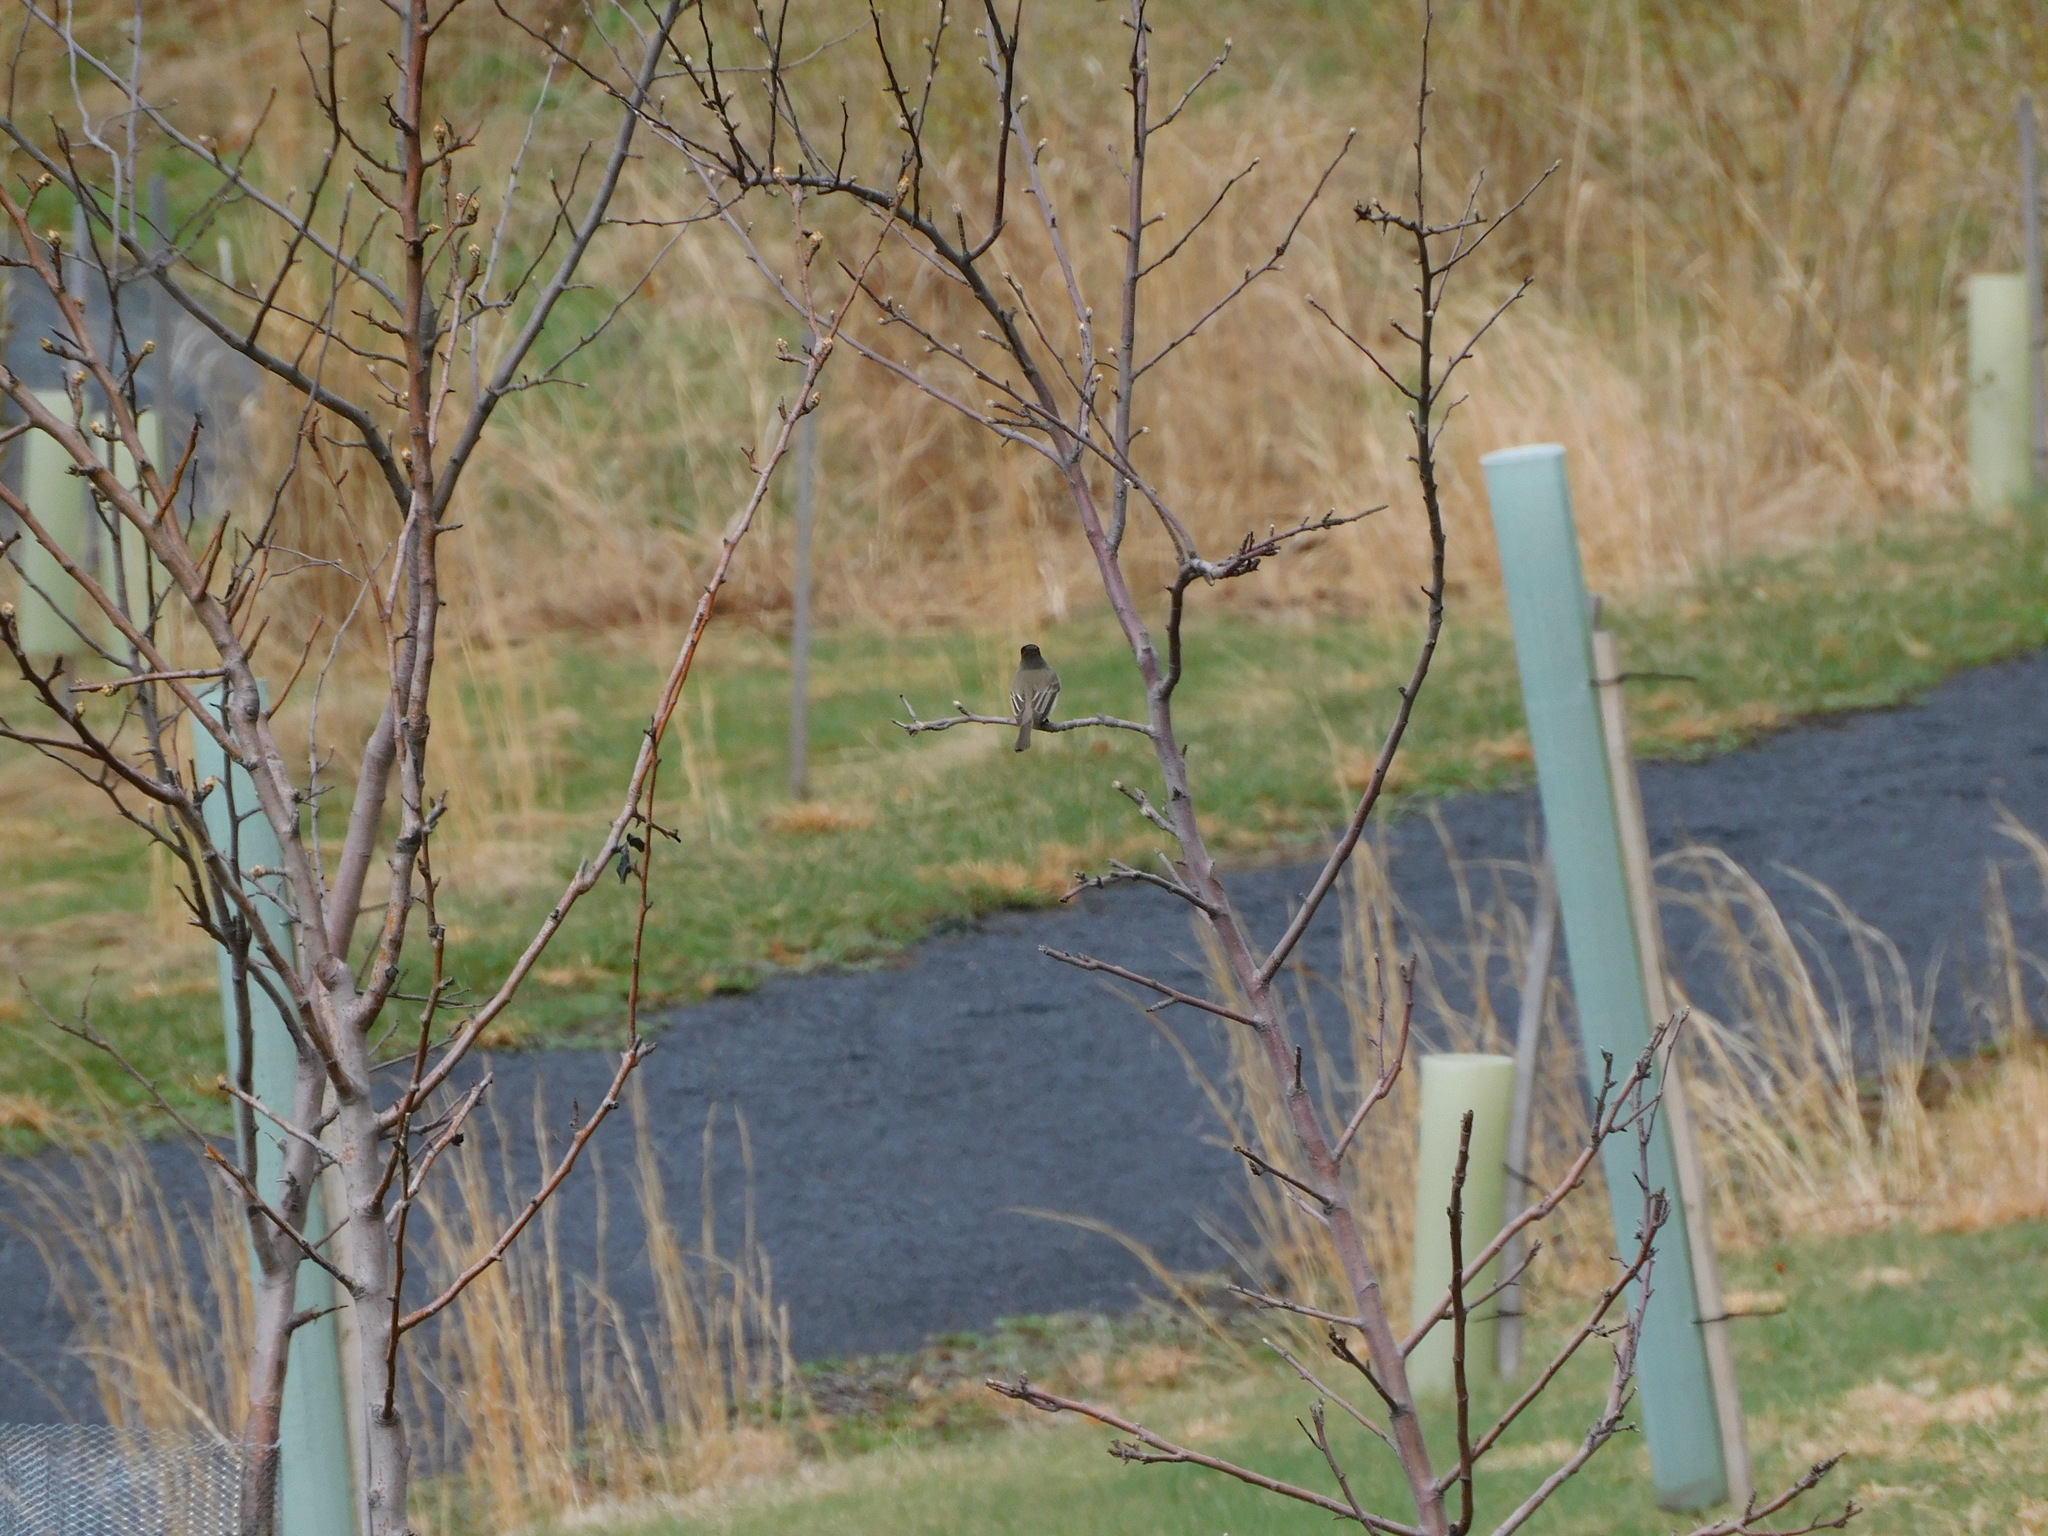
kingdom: Animalia
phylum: Chordata
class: Aves
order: Passeriformes
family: Tyrannidae
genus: Sayornis
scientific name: Sayornis phoebe
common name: Eastern phoebe
